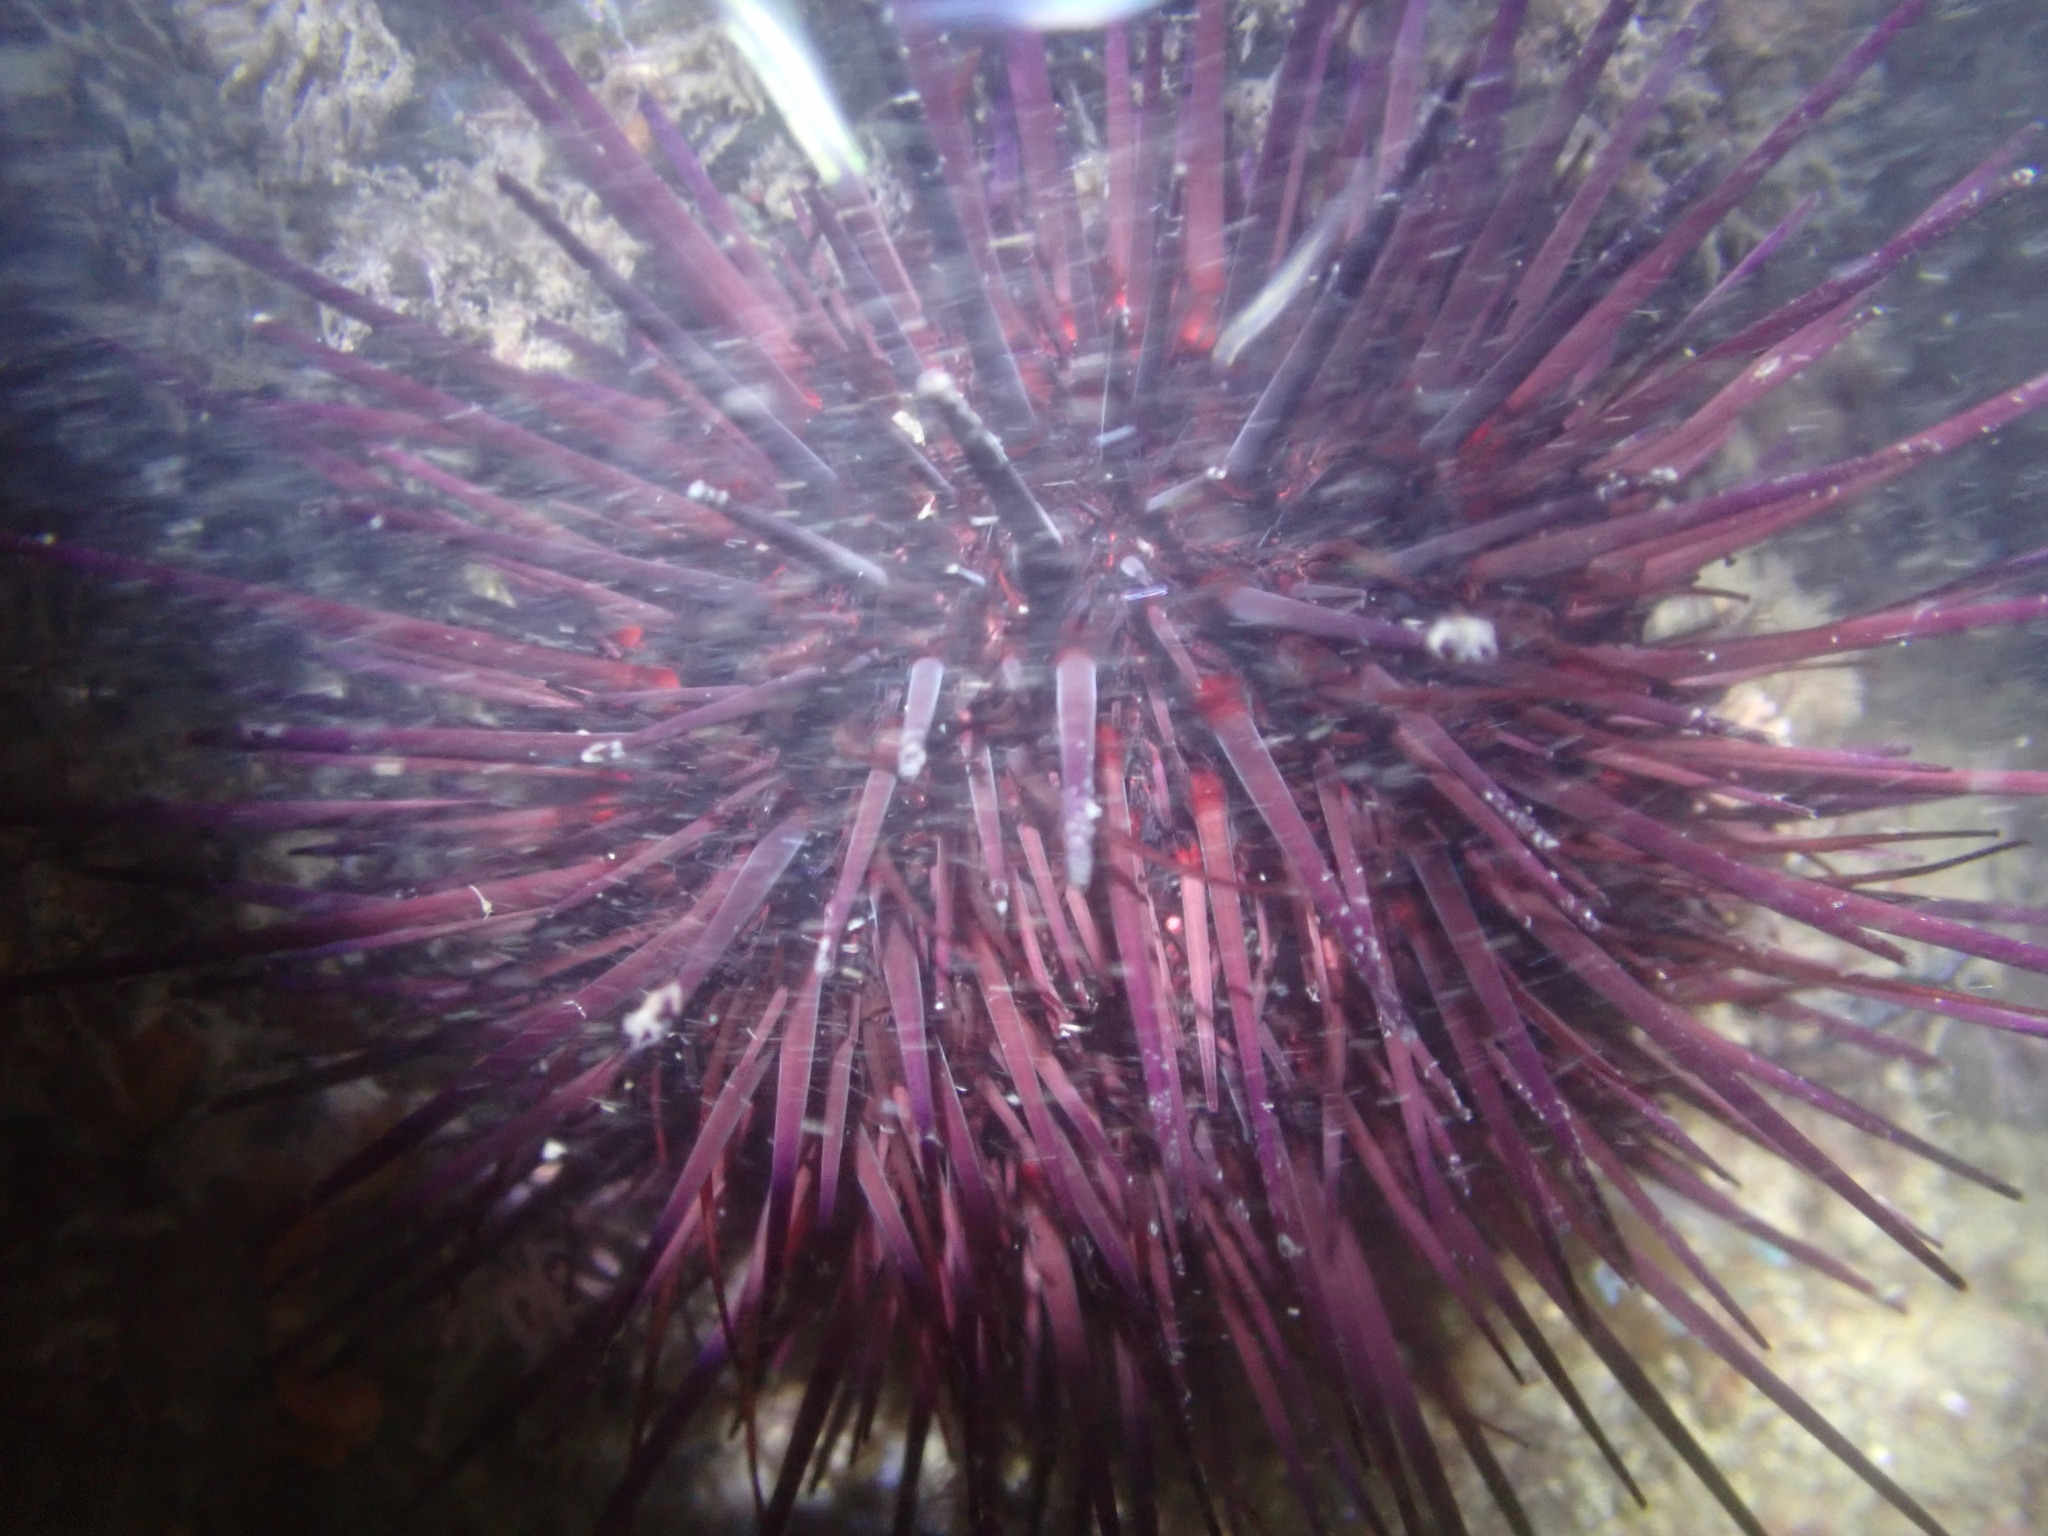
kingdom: Animalia
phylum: Echinodermata
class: Echinoidea
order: Camarodonta
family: Strongylocentrotidae
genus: Mesocentrotus
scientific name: Mesocentrotus franciscanus
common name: Red sea urchin
